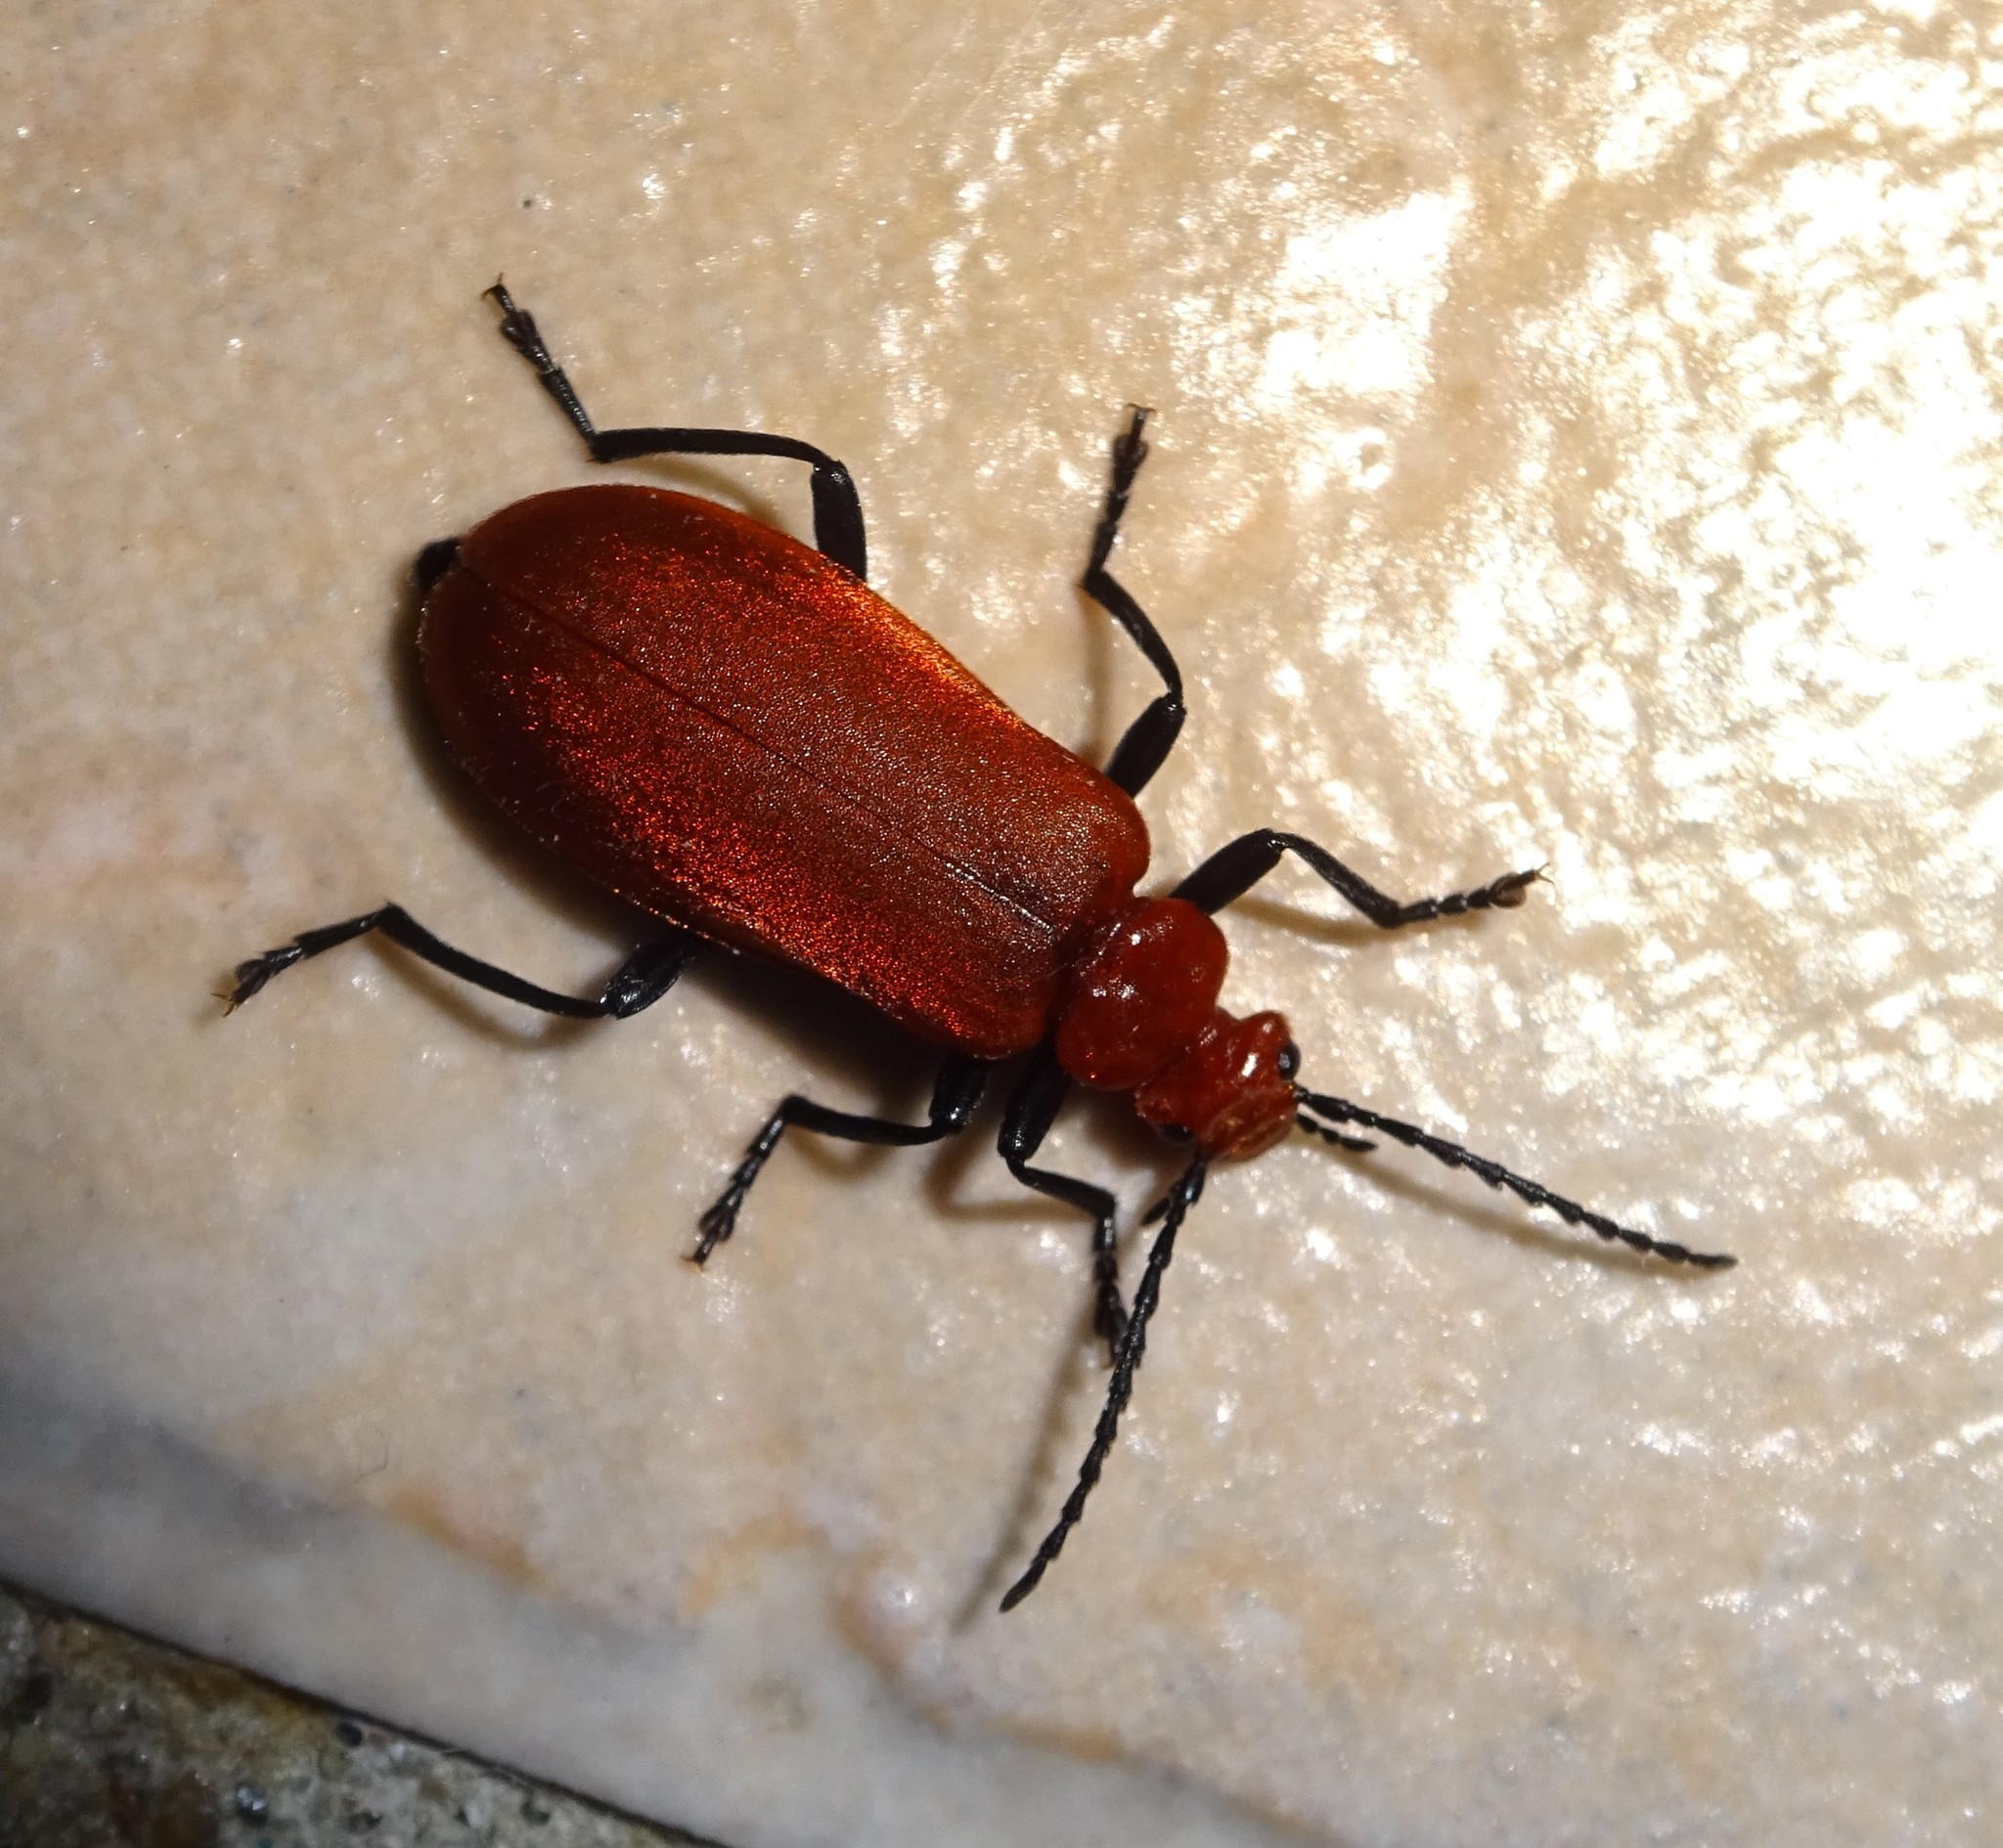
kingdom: Animalia
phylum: Arthropoda
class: Insecta
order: Coleoptera
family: Pyrochroidae
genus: Pyrochroa
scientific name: Pyrochroa serraticornis
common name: Red-headed cardinal beetle
